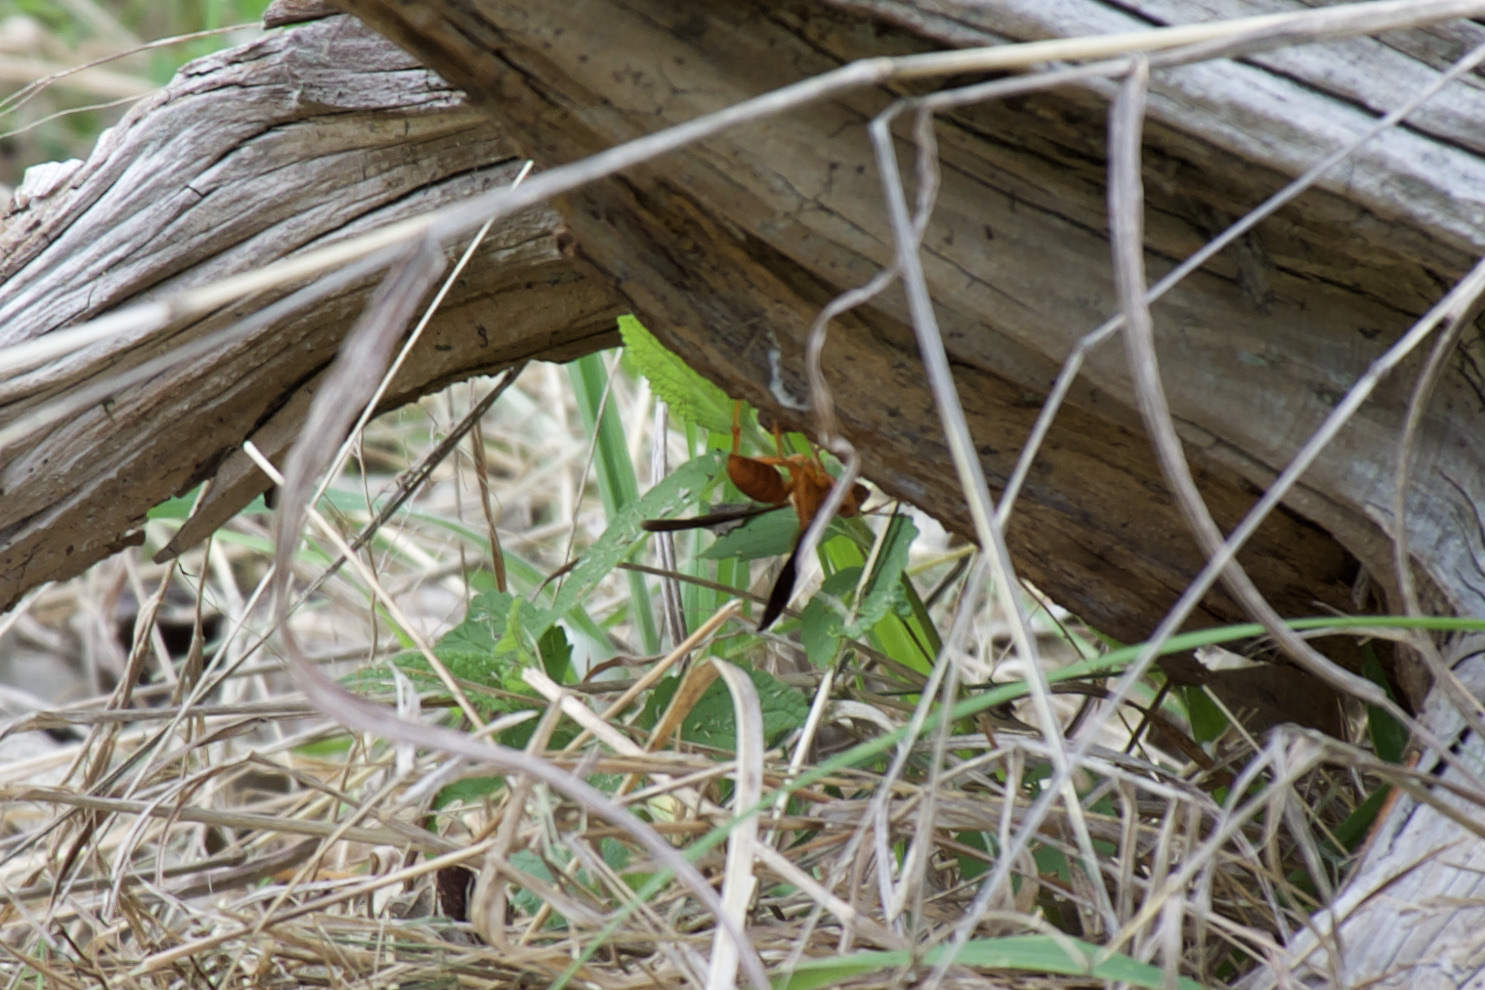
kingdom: Animalia
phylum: Arthropoda
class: Insecta
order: Hymenoptera
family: Vespidae
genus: Fuscopolistes
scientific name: Fuscopolistes
